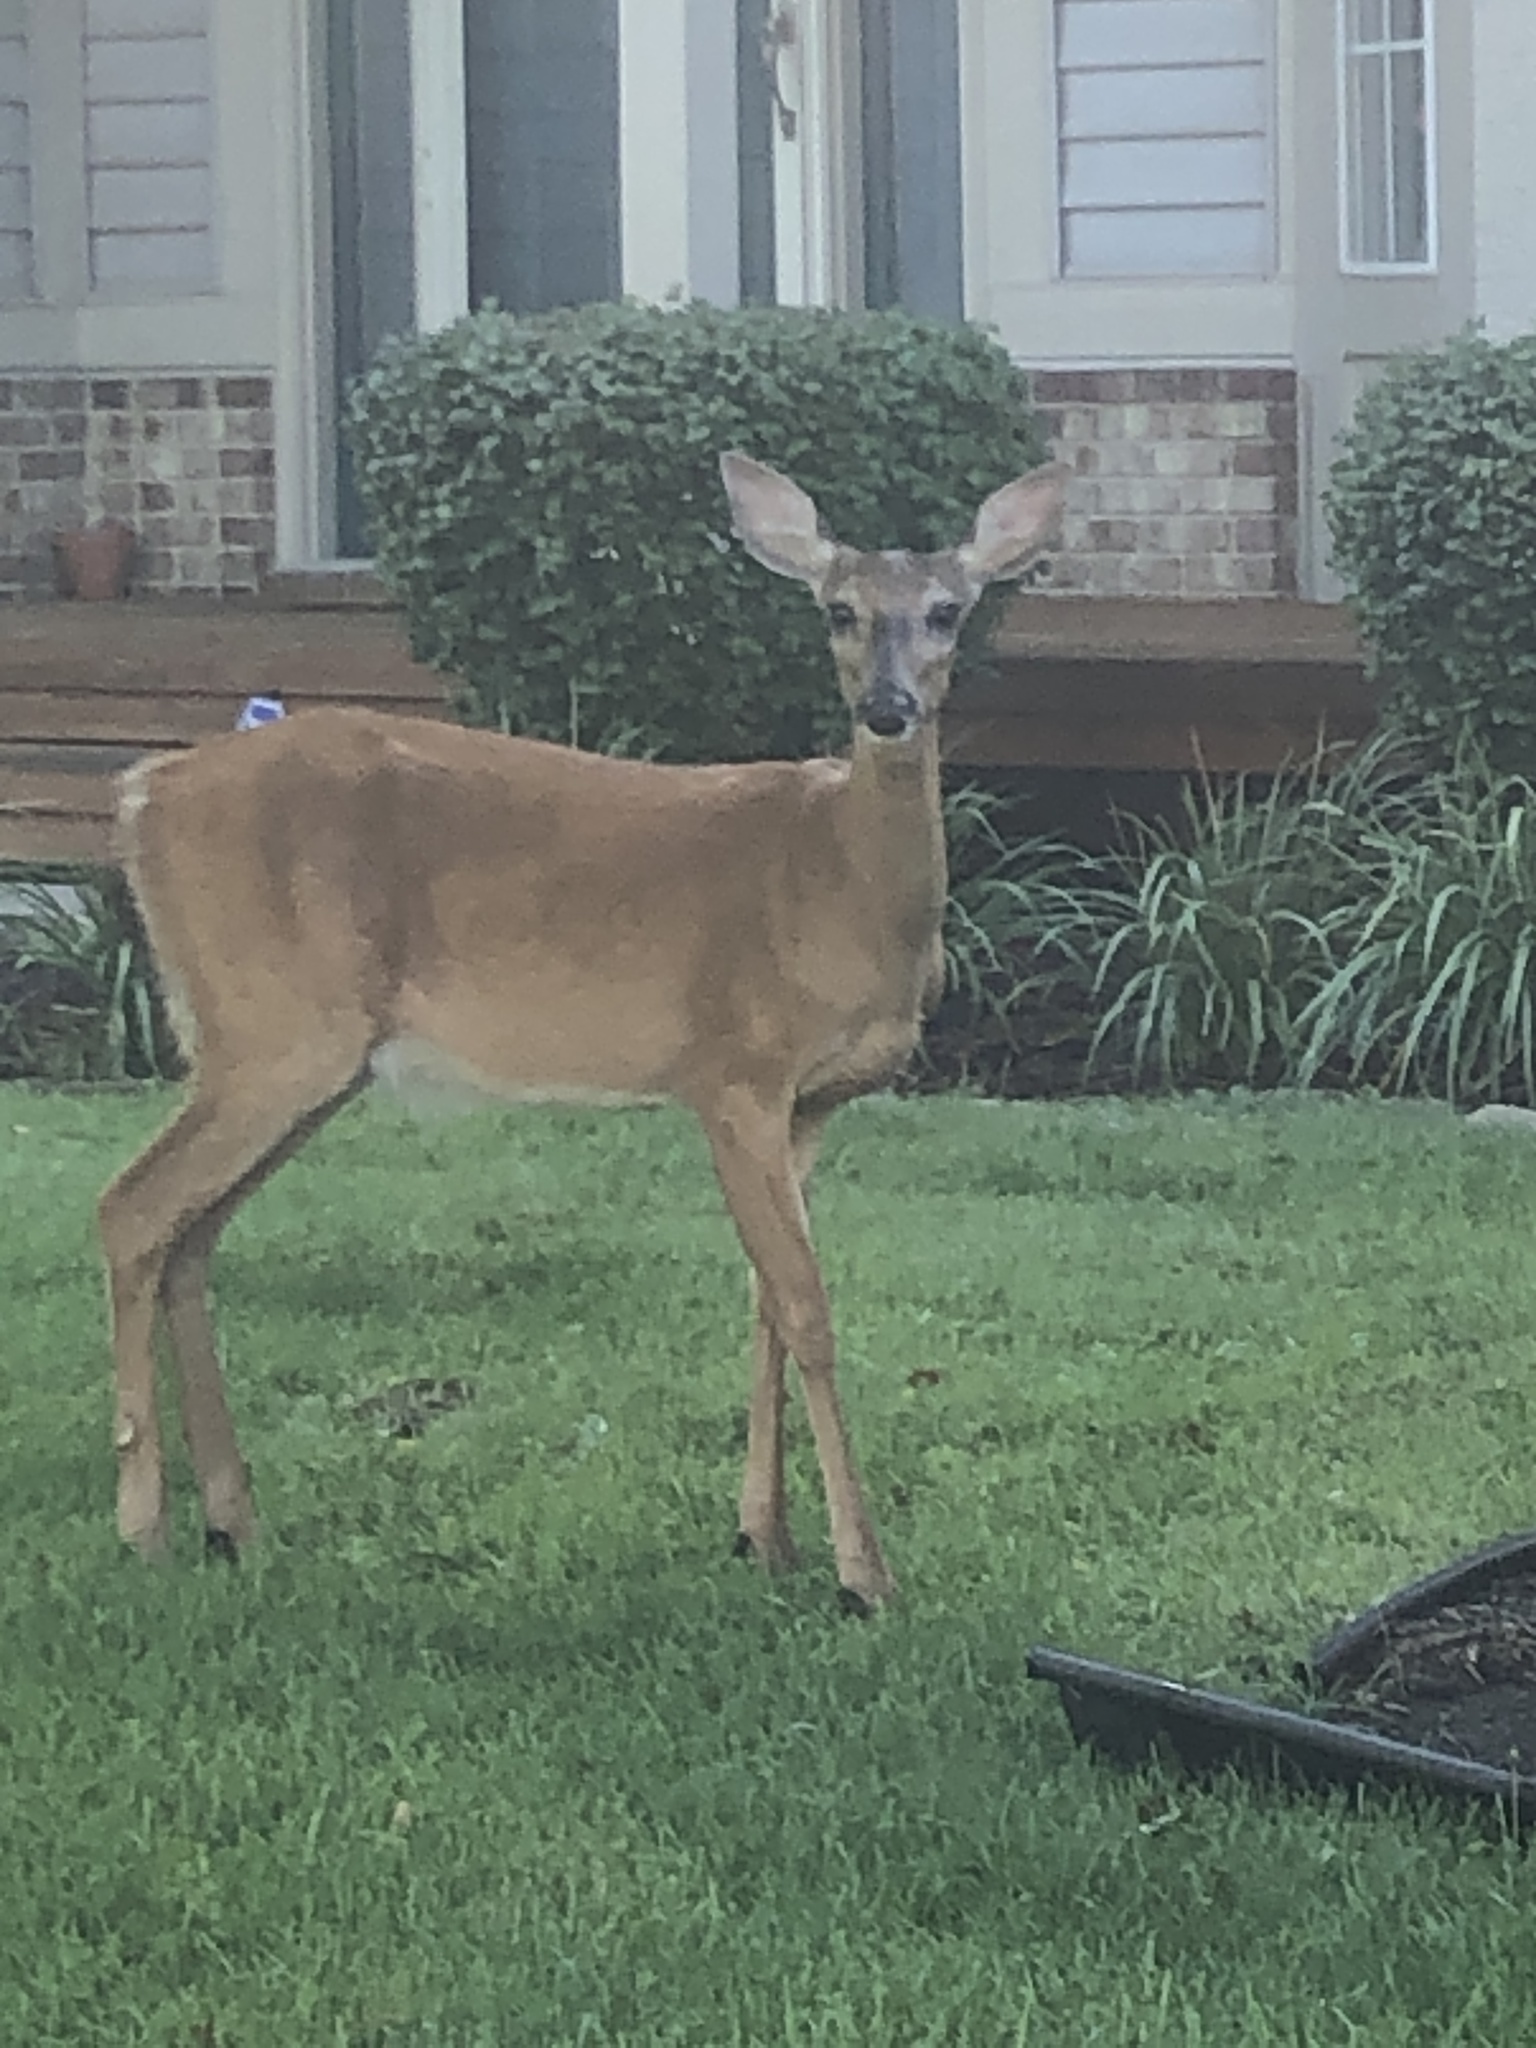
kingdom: Animalia
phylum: Chordata
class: Mammalia
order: Artiodactyla
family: Cervidae
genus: Odocoileus
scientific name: Odocoileus virginianus
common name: White-tailed deer
